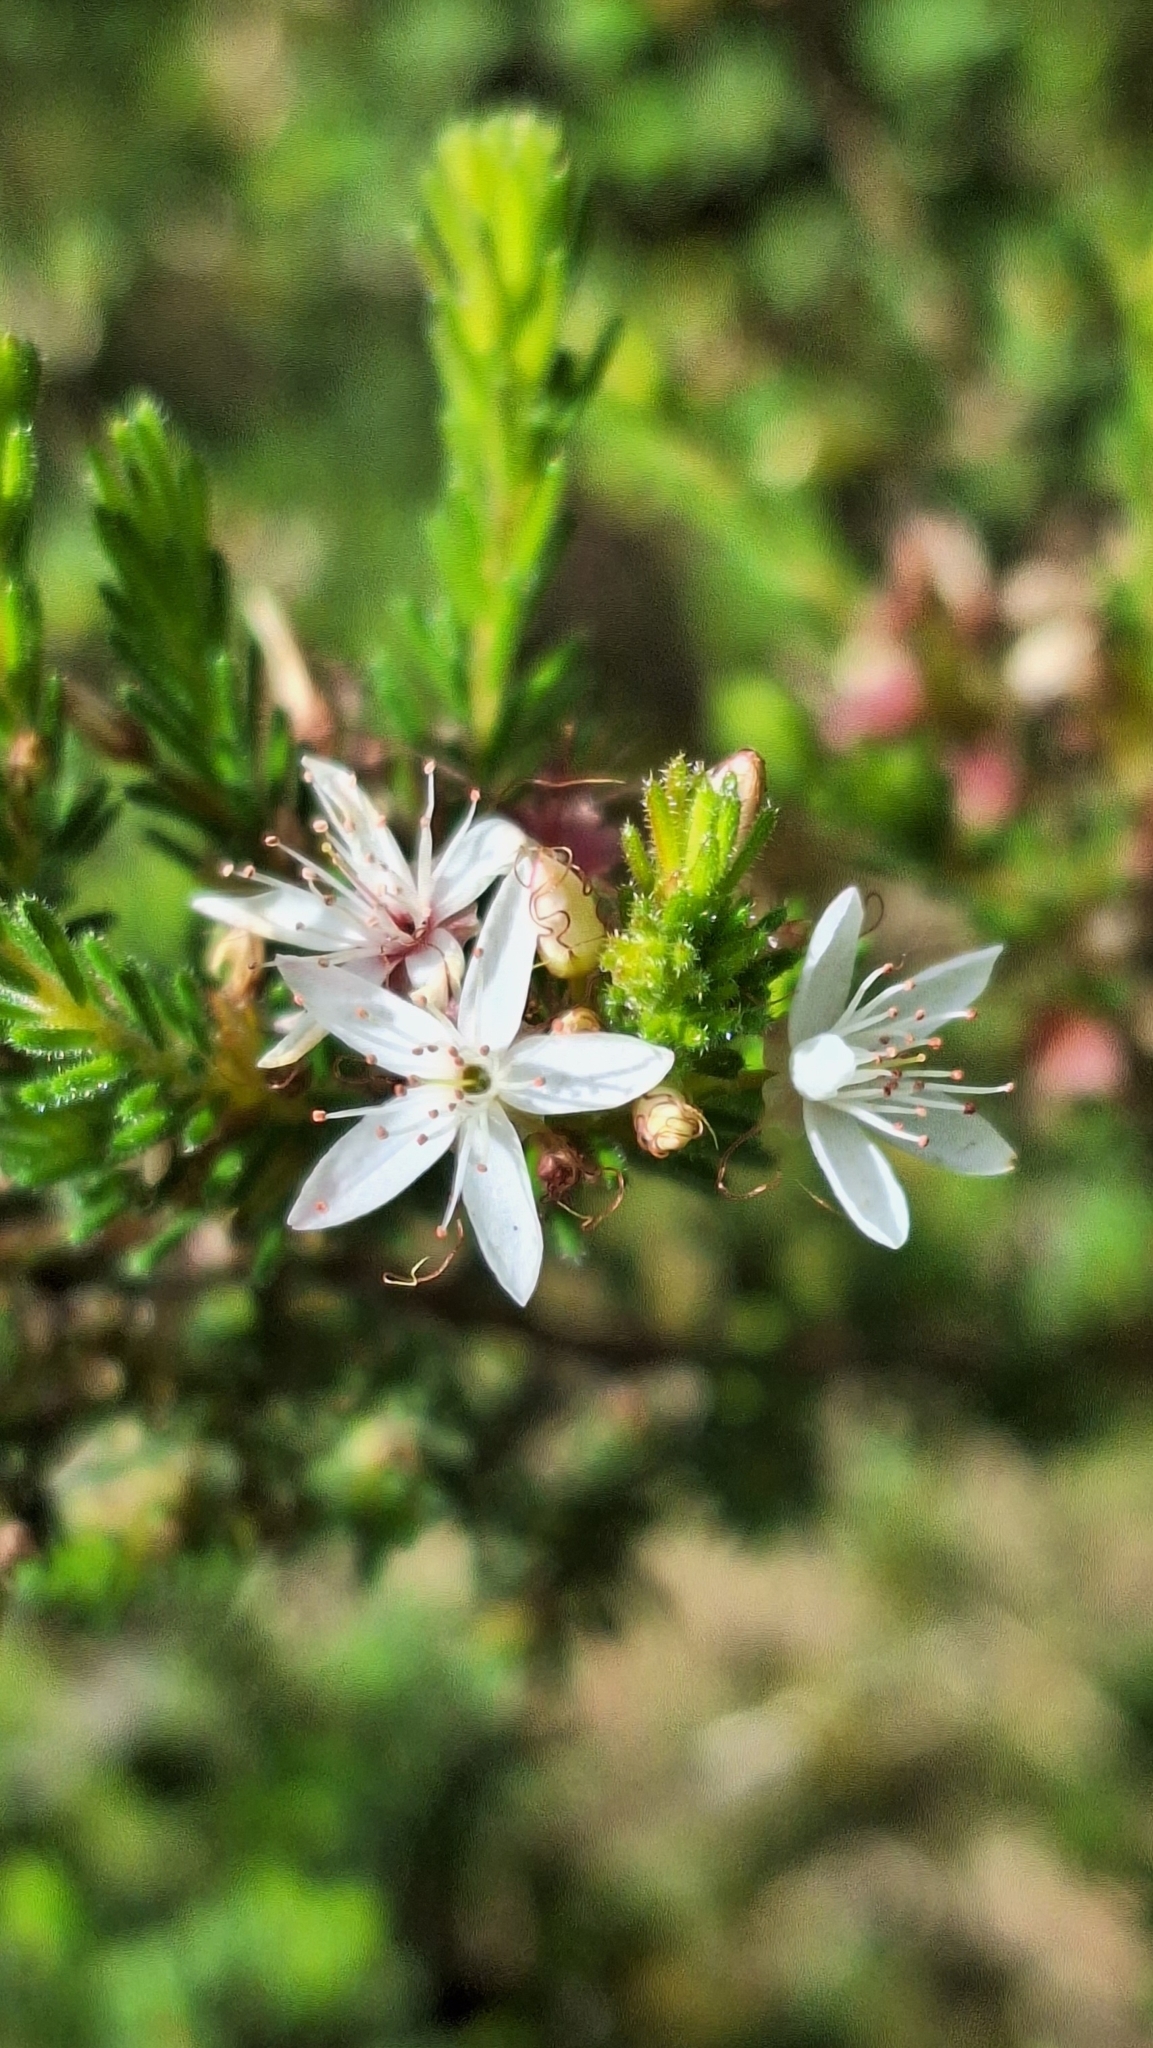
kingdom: Plantae
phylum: Tracheophyta
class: Magnoliopsida
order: Myrtales
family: Myrtaceae
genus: Calytrix
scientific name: Calytrix tetragona
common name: Common fringe myrtle
